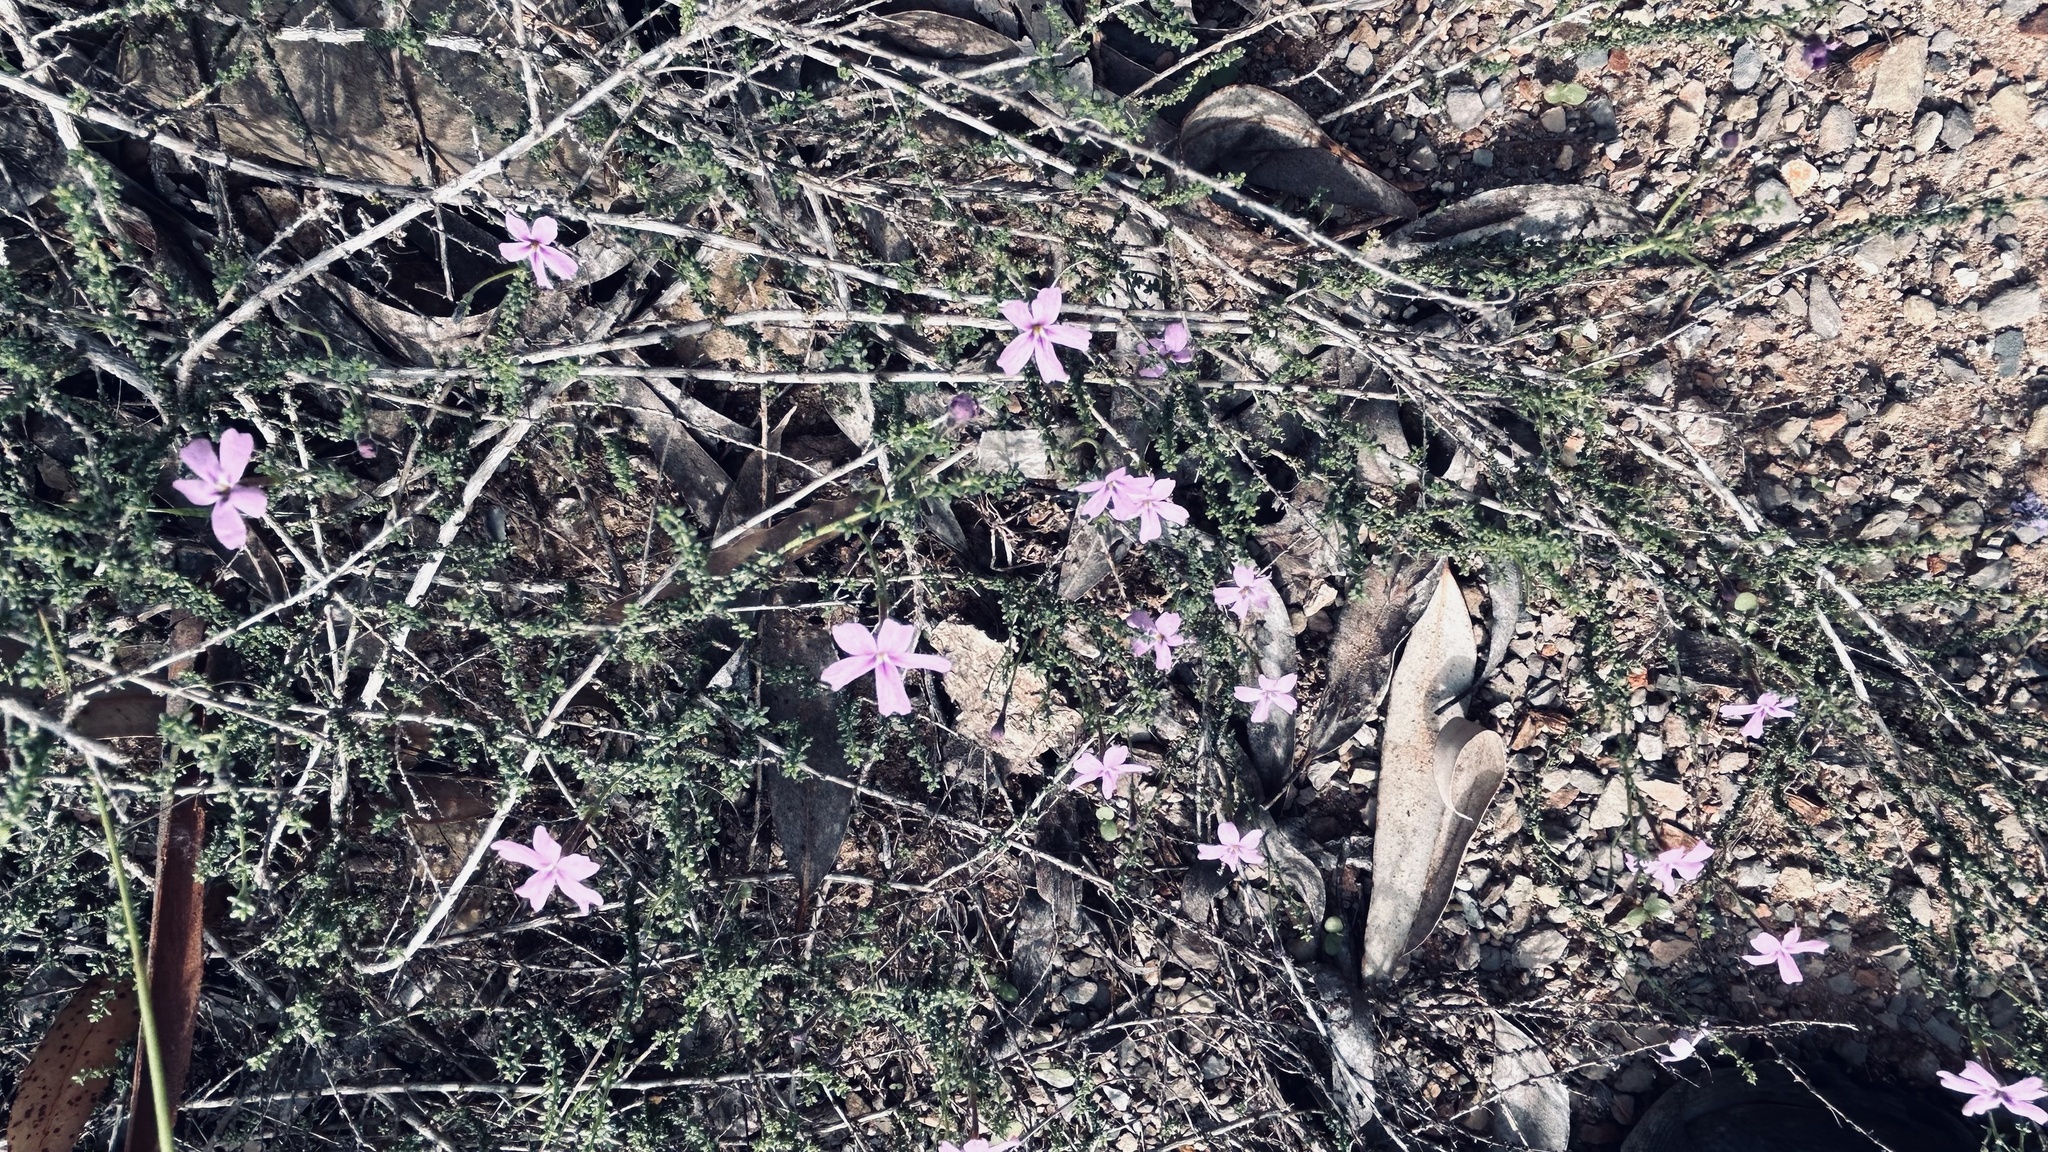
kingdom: Plantae
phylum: Tracheophyta
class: Magnoliopsida
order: Lamiales
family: Scrophulariaceae
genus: Jamesbrittenia
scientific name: Jamesbrittenia calciphila
